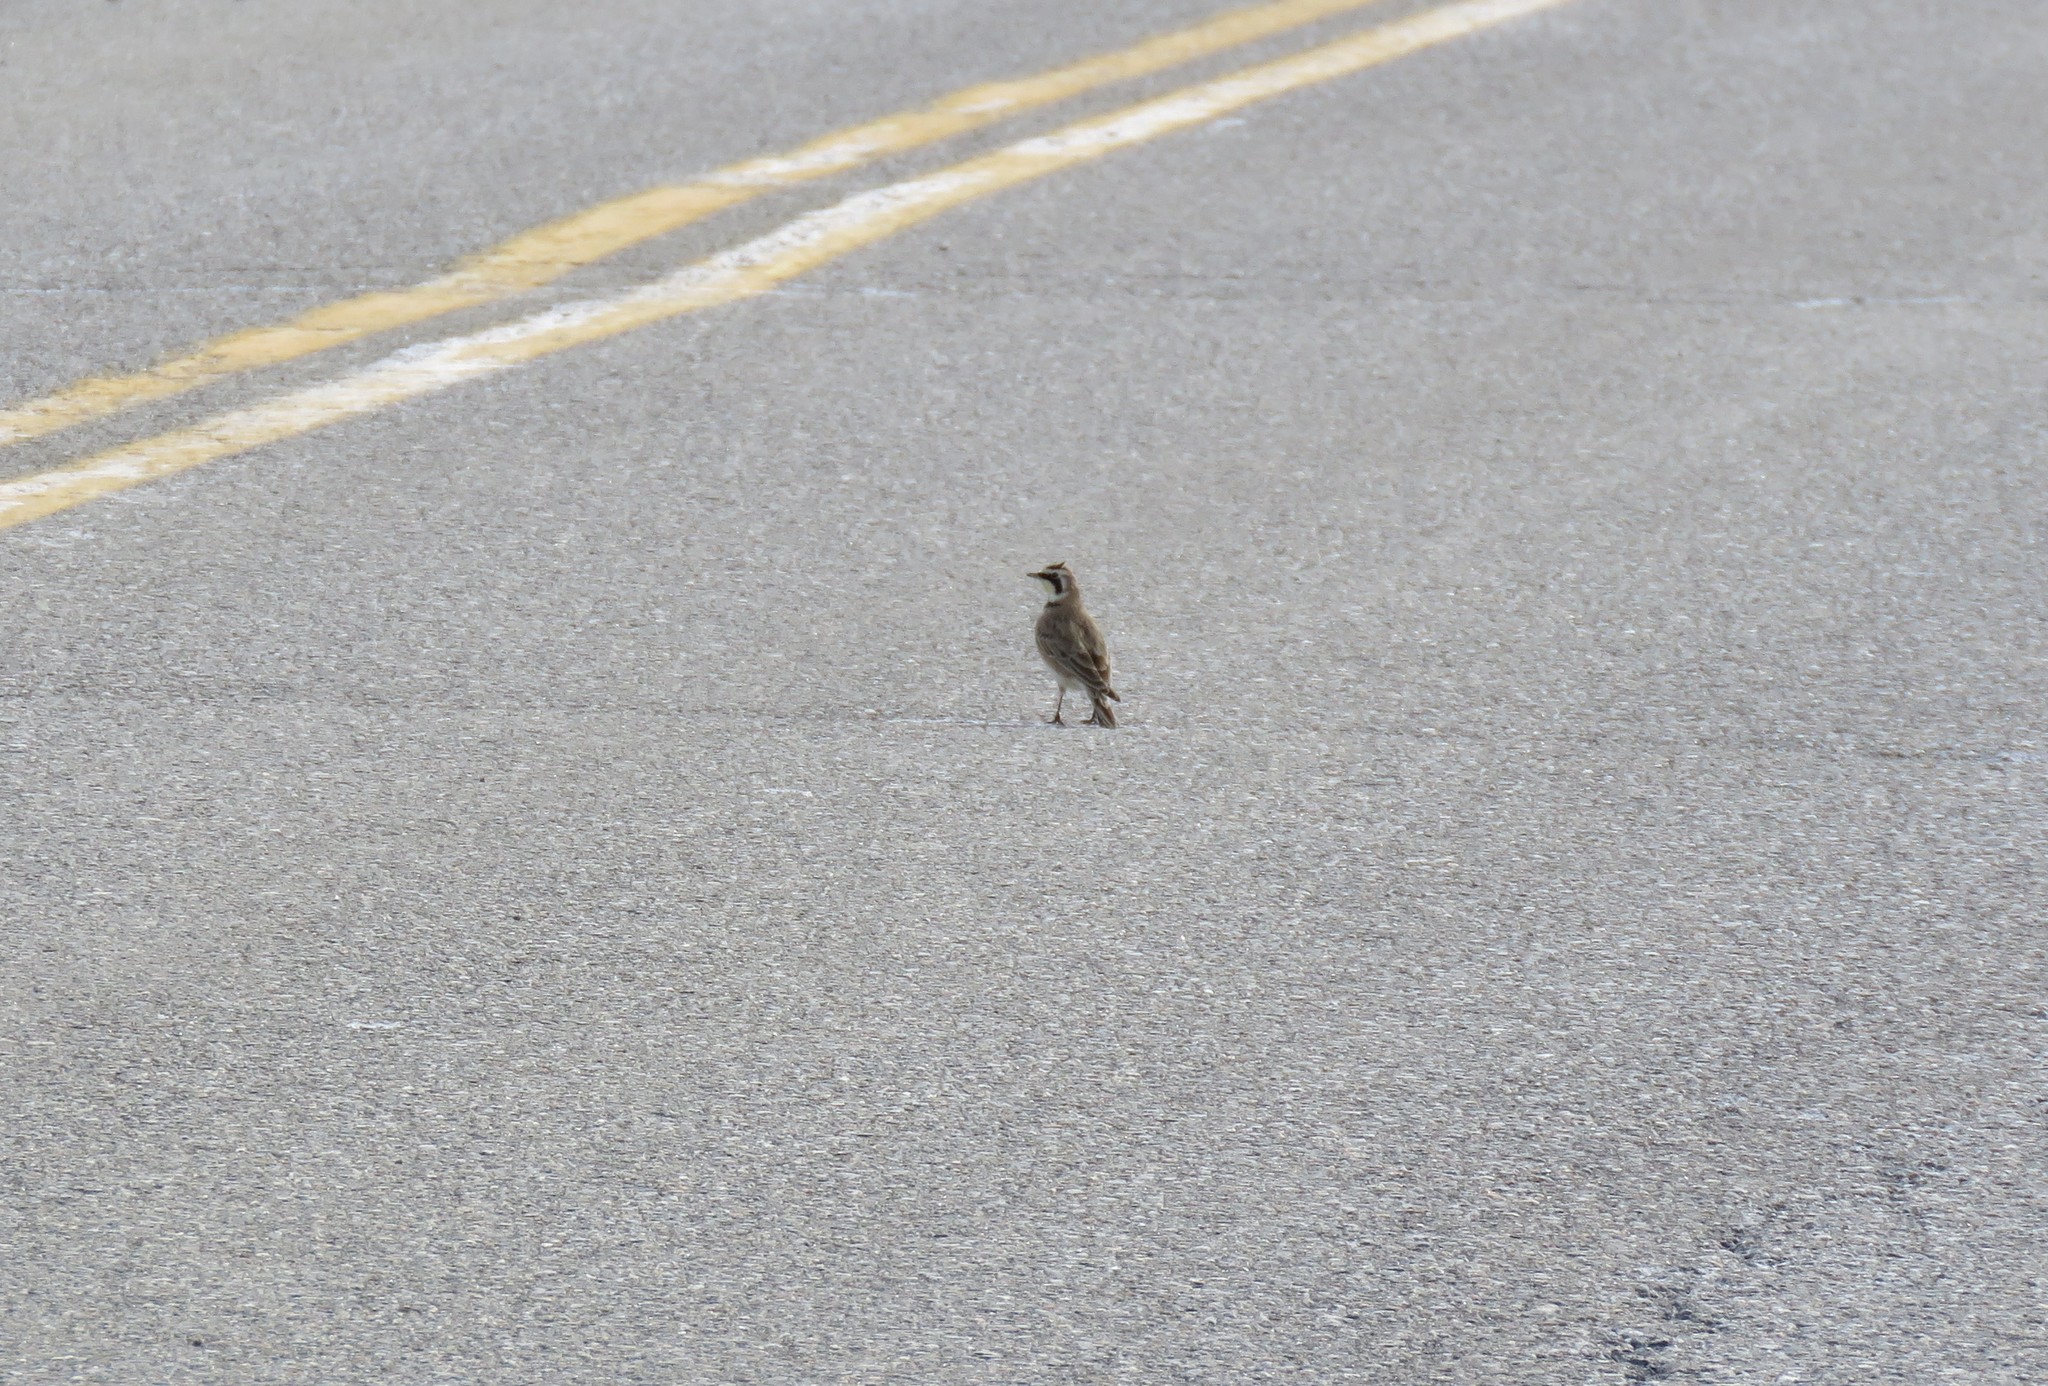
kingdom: Animalia
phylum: Chordata
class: Aves
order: Passeriformes
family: Alaudidae
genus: Eremophila
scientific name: Eremophila alpestris
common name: Horned lark
